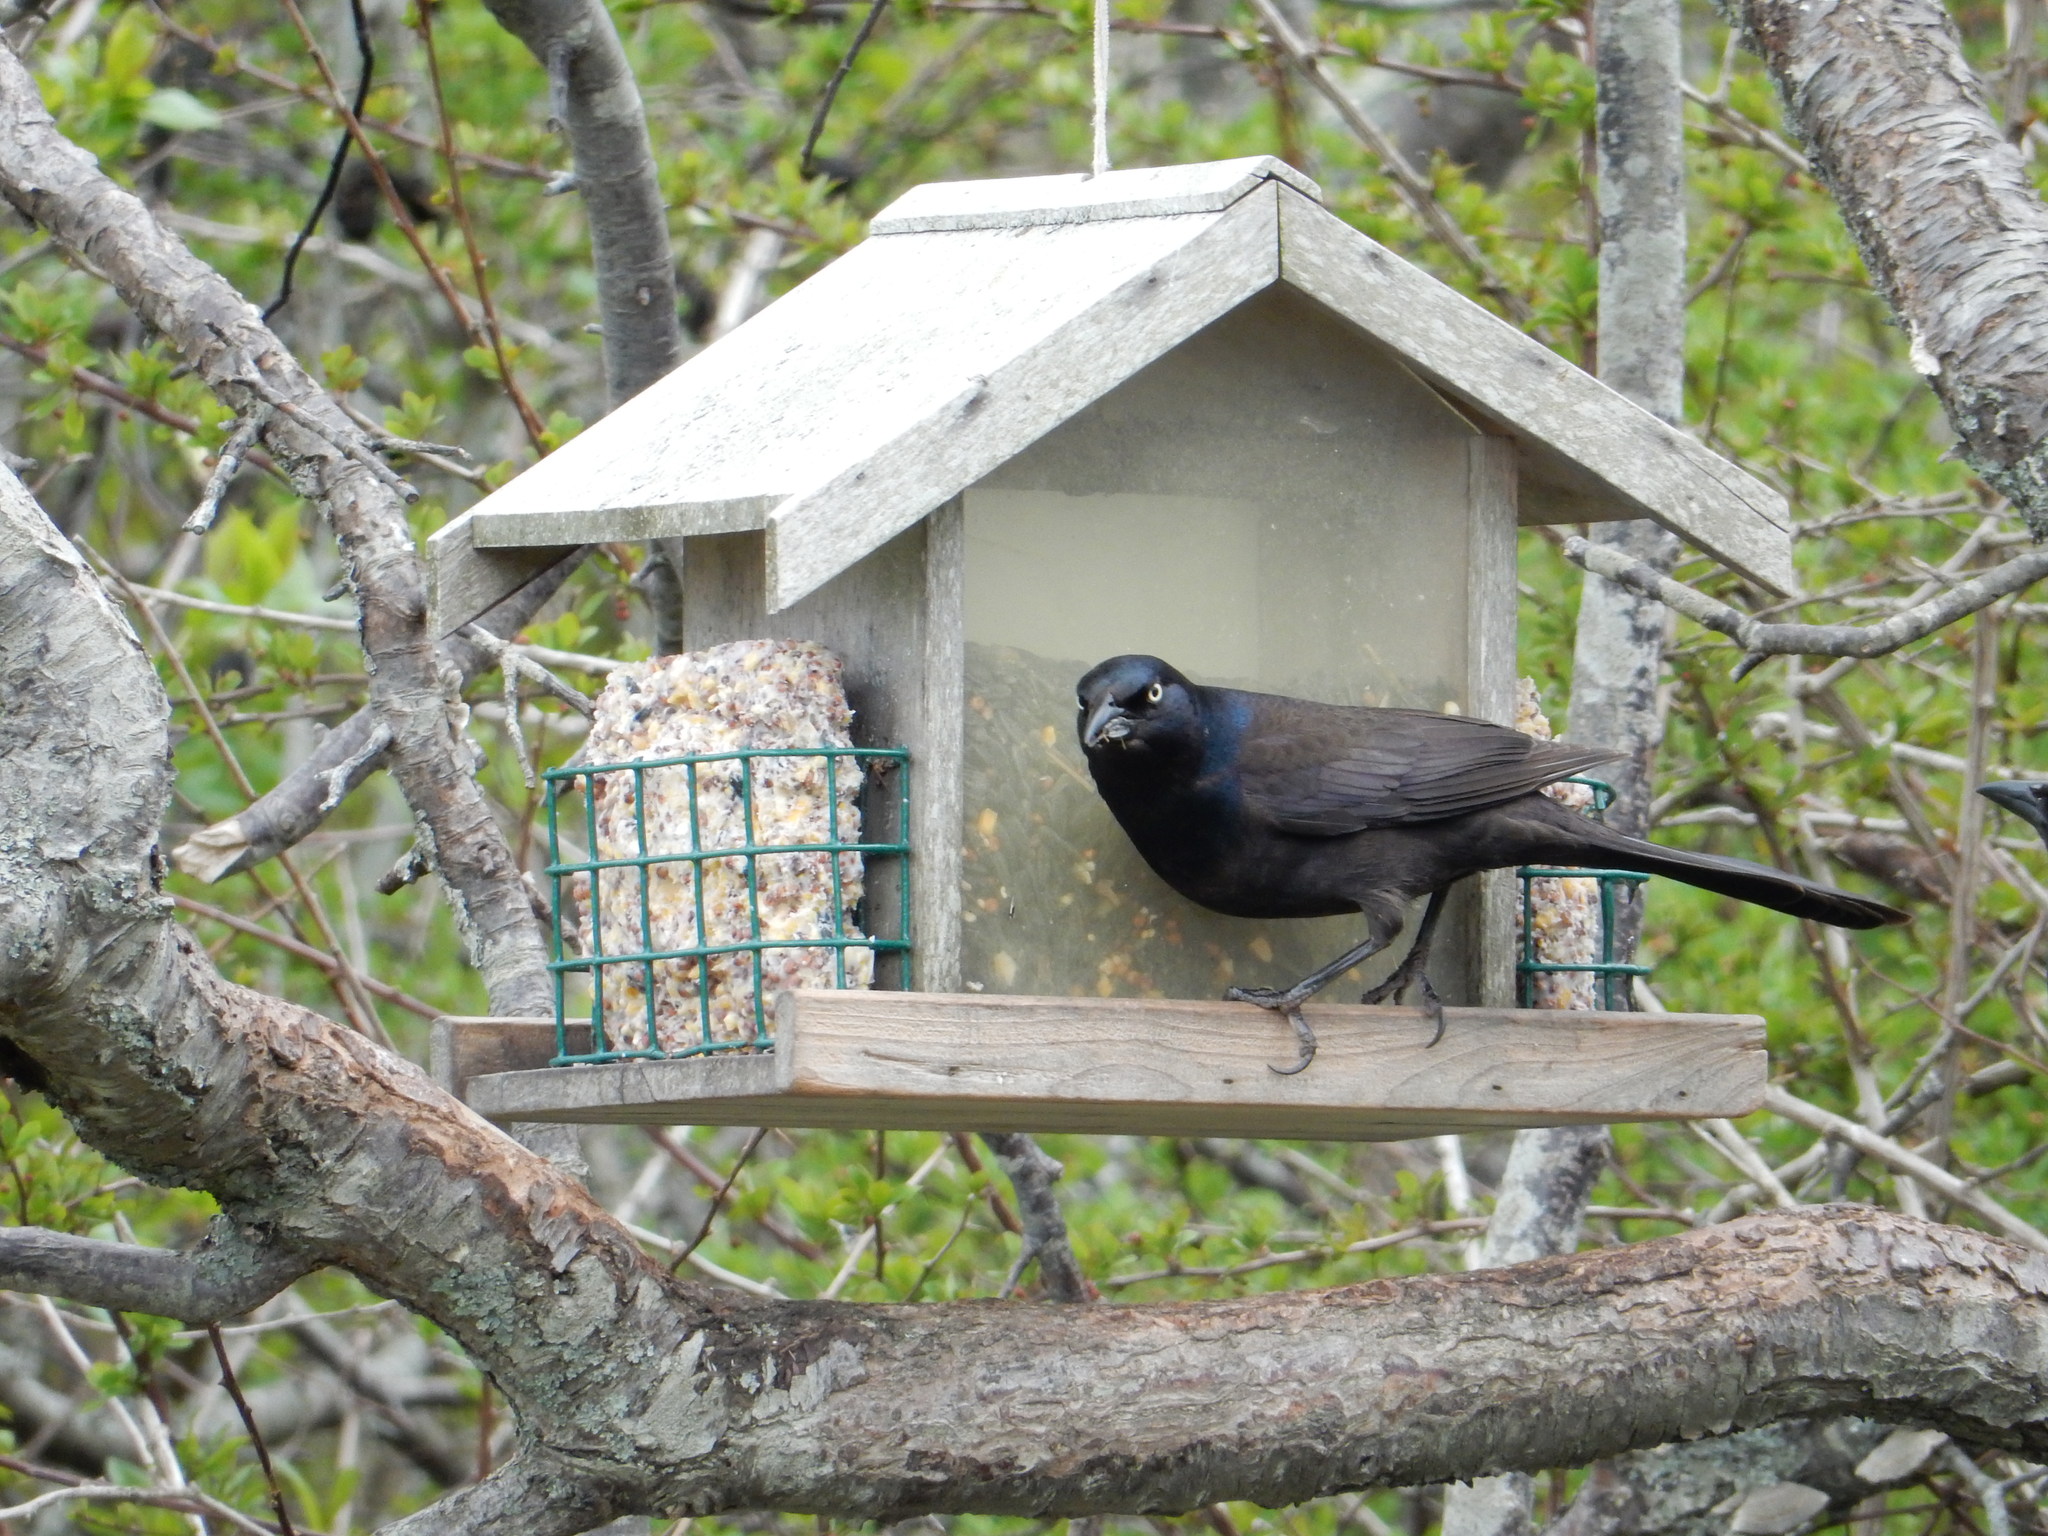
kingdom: Animalia
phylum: Chordata
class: Aves
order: Passeriformes
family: Icteridae
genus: Quiscalus
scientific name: Quiscalus quiscula
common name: Common grackle
